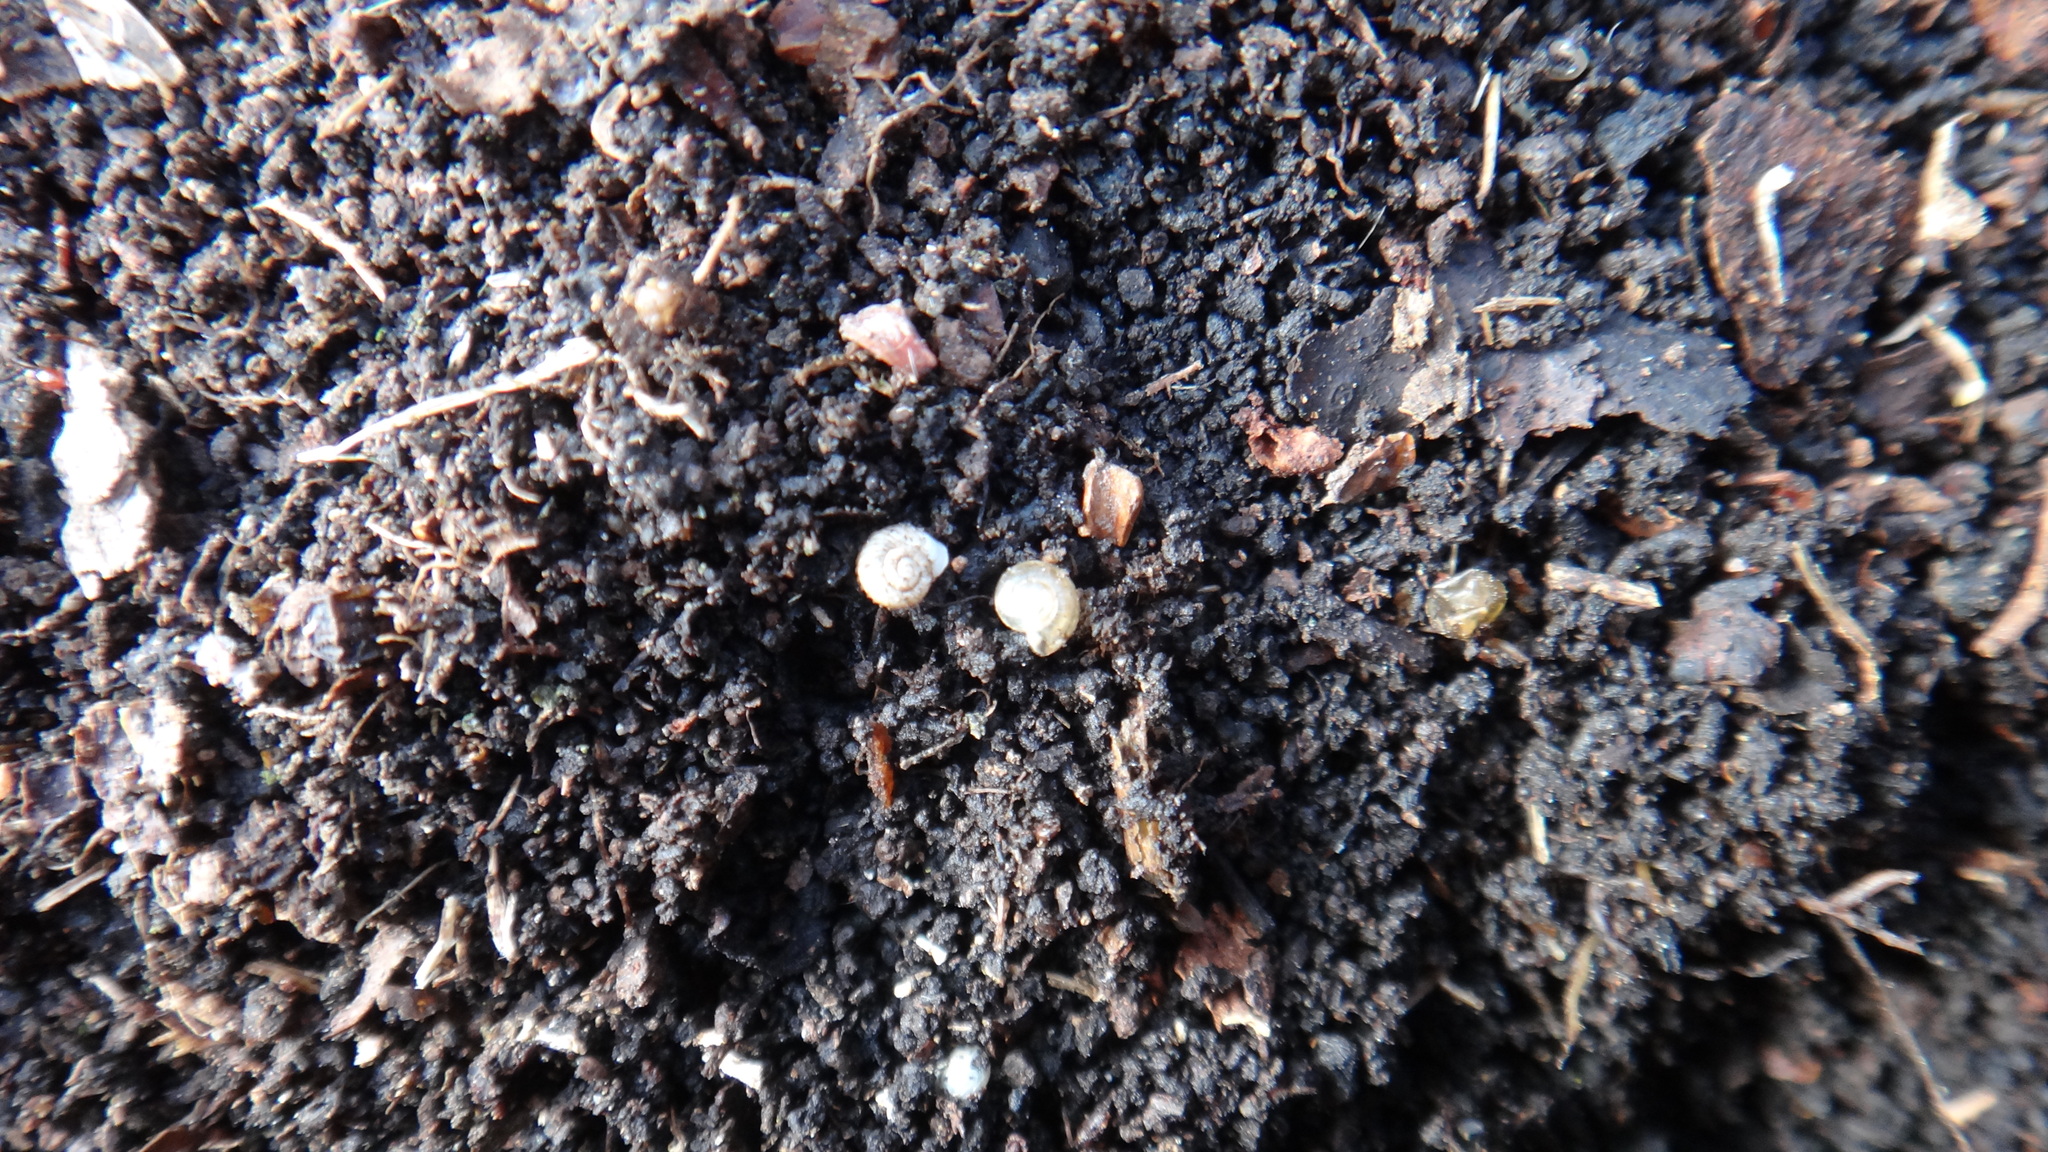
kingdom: Animalia
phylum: Mollusca
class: Gastropoda
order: Stylommatophora
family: Valloniidae
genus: Vallonia
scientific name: Vallonia costata
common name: Ribbed grass snail
